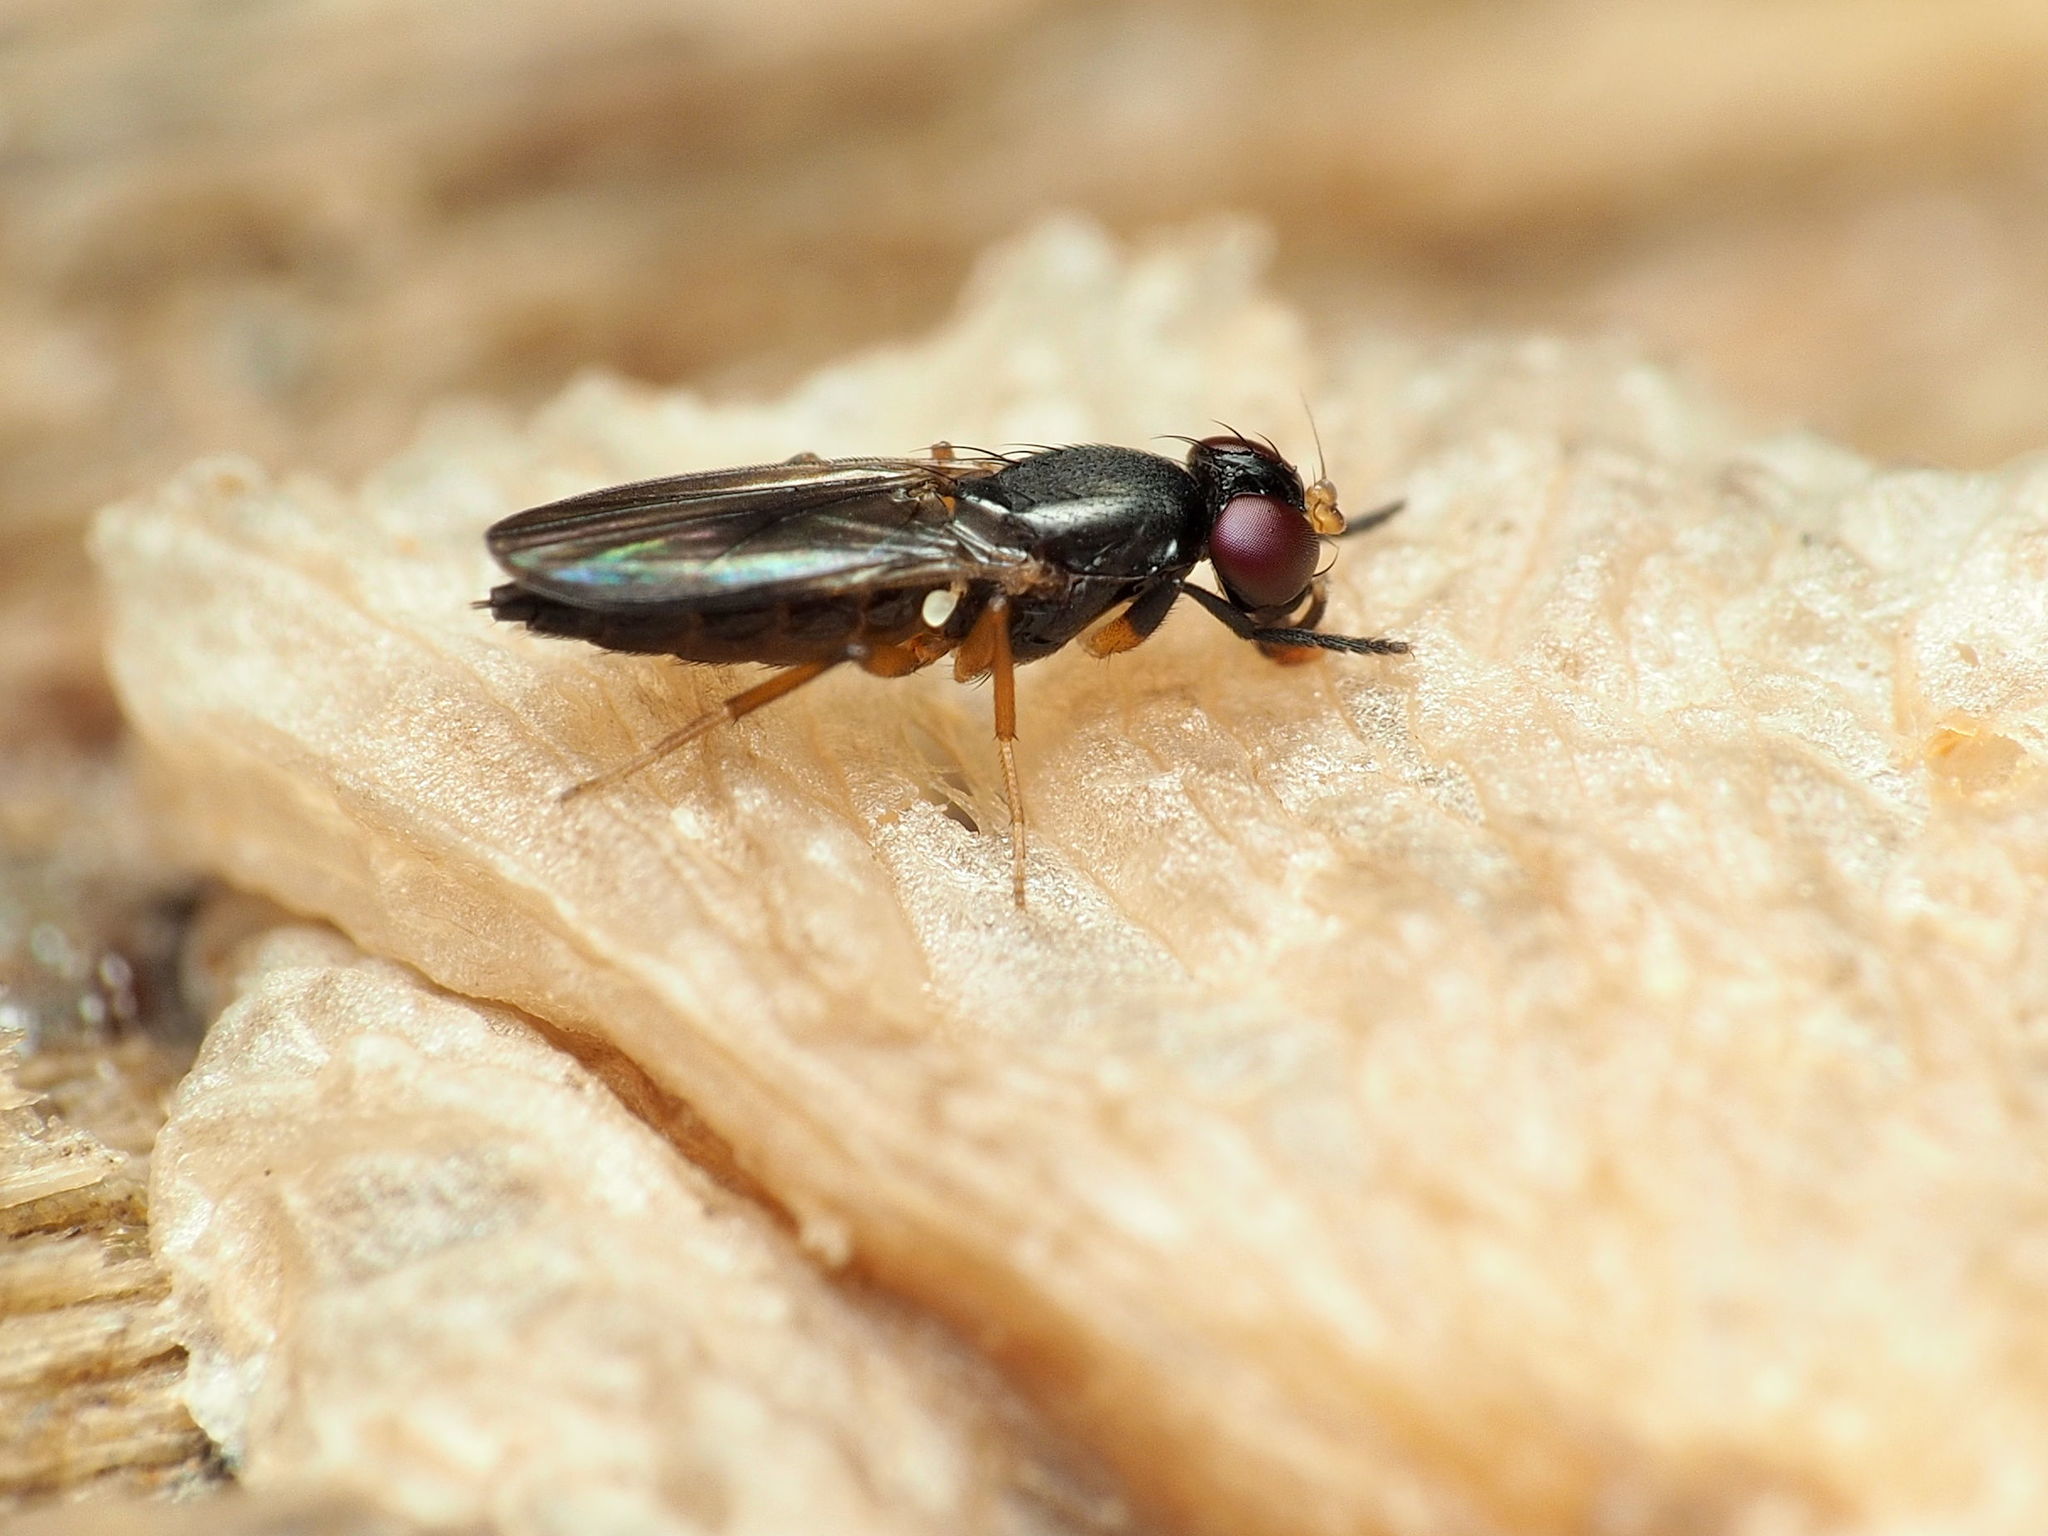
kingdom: Animalia
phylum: Arthropoda
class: Insecta
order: Diptera
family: Clusiidae
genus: Heteromeringia
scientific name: Heteromeringia nitida
